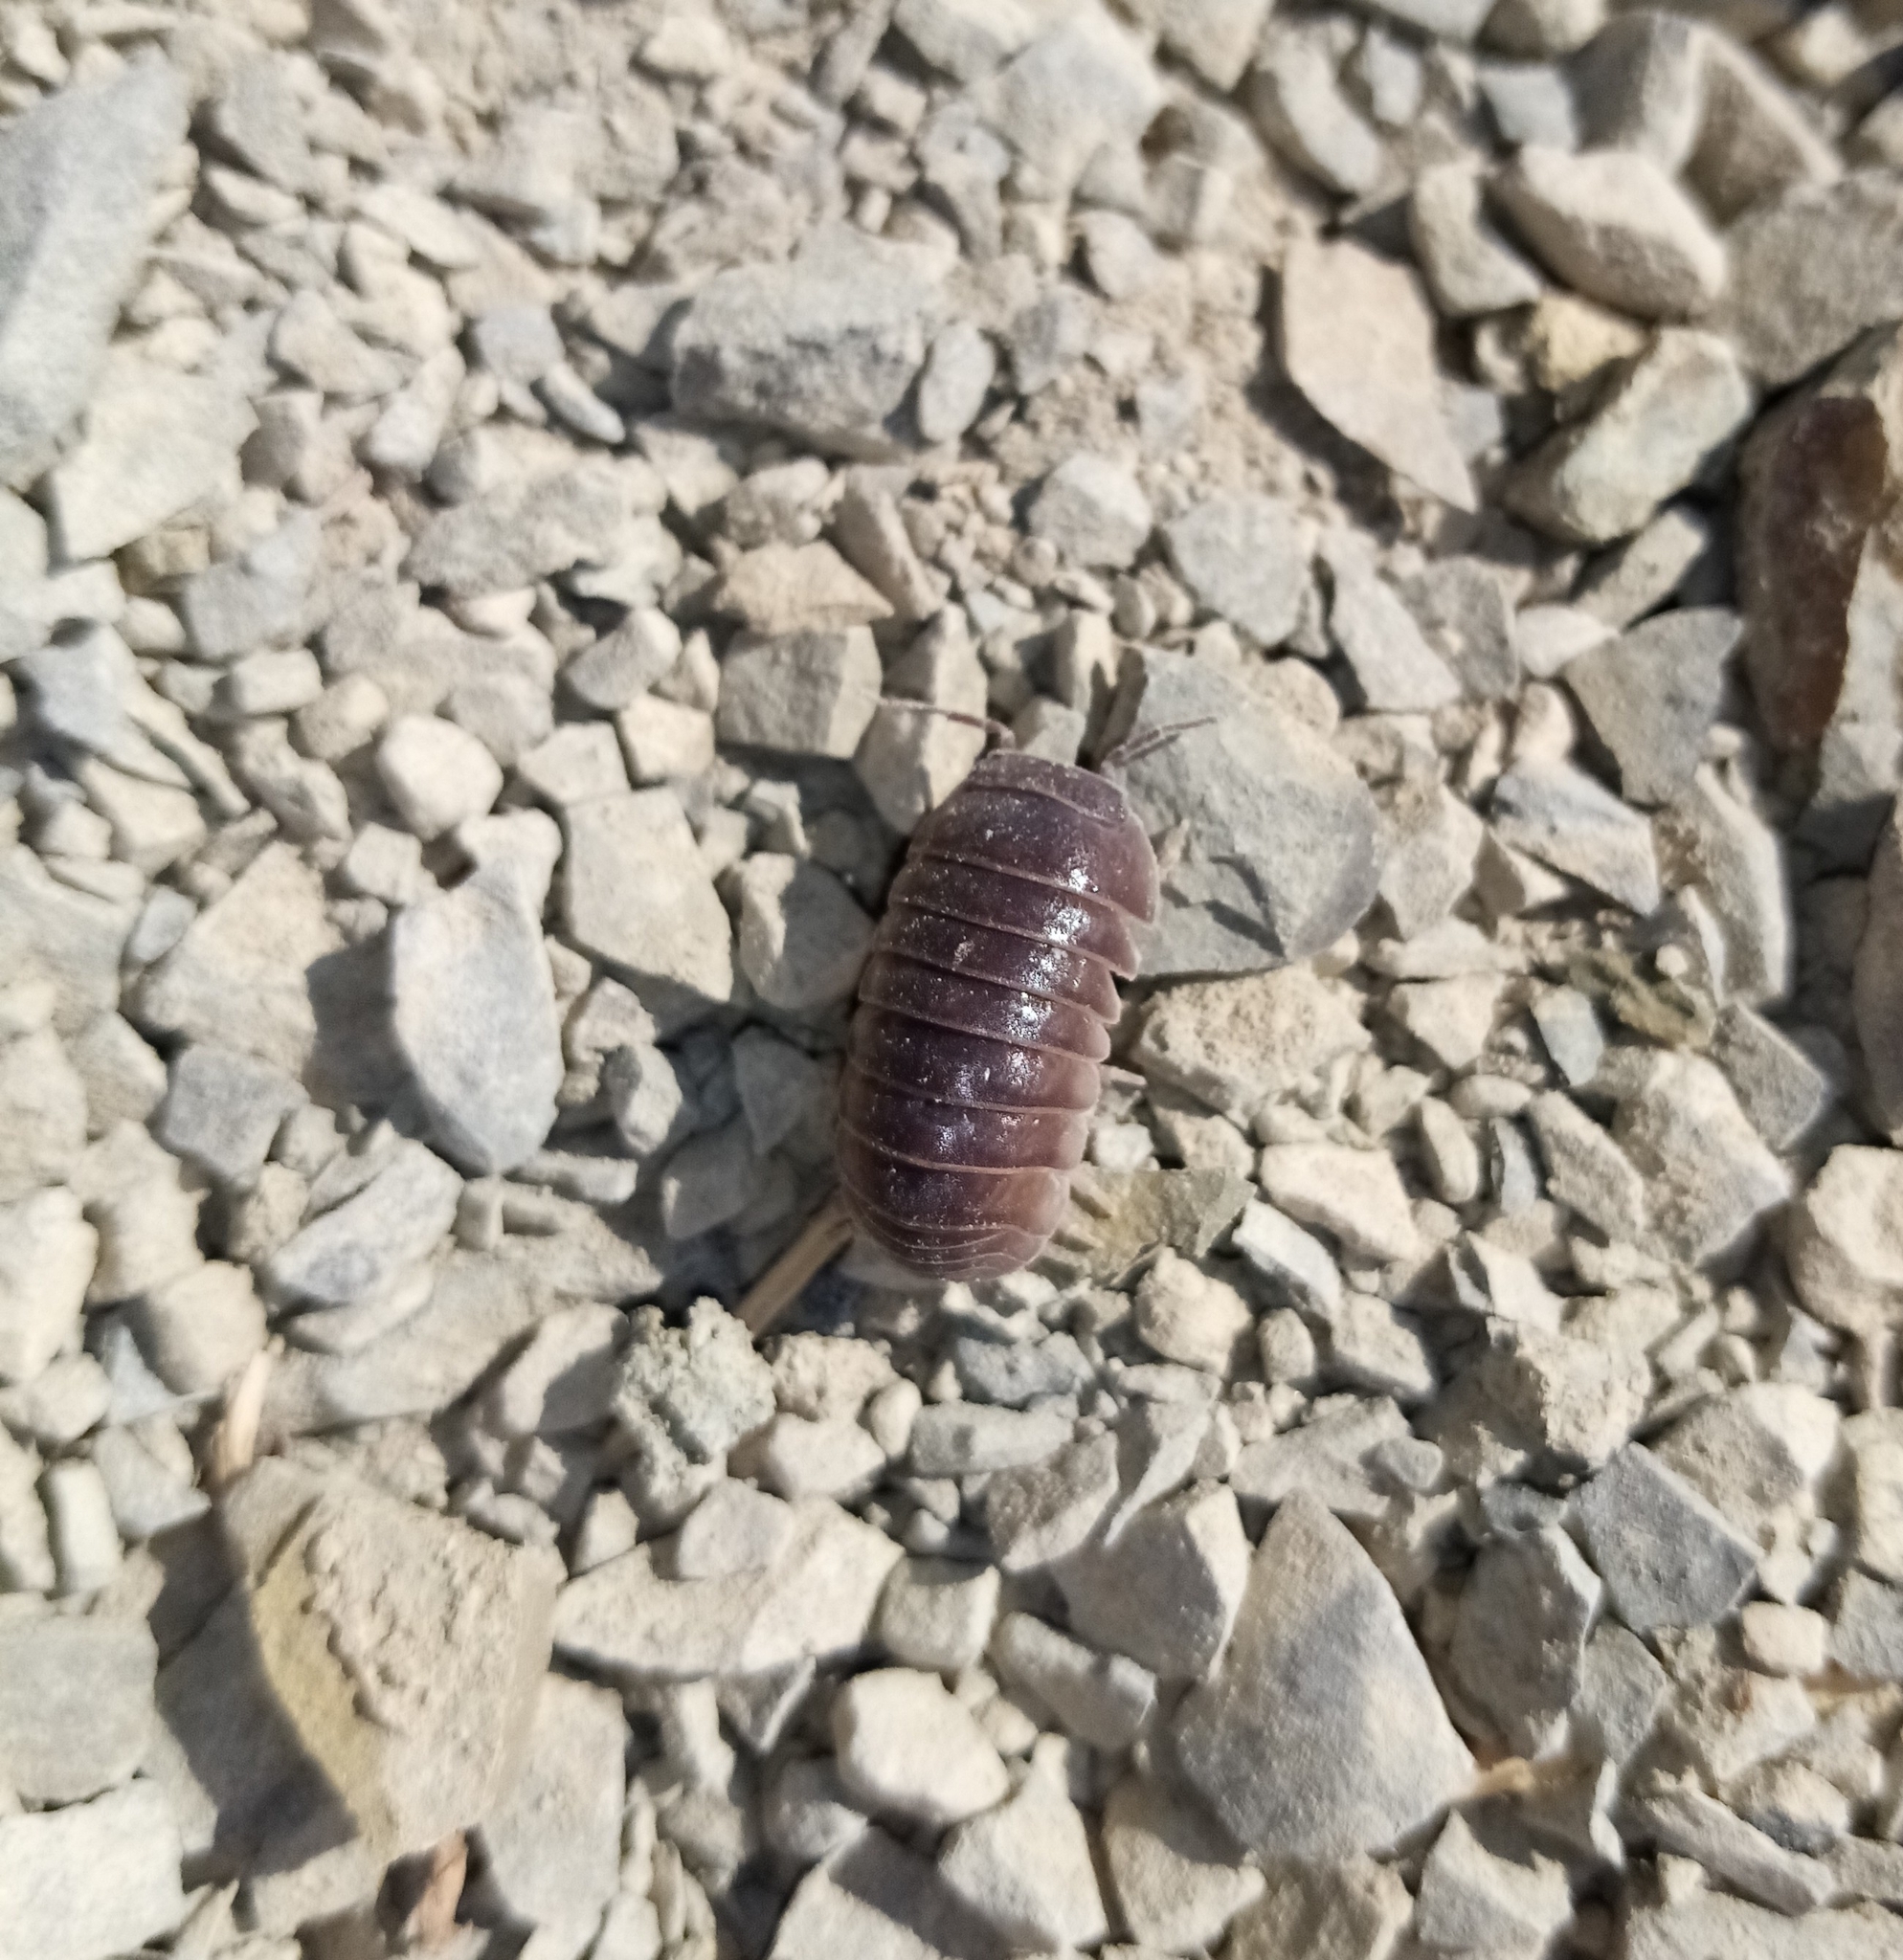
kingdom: Animalia
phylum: Arthropoda
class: Malacostraca
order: Isopoda
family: Armadillidae
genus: Armadillo
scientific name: Armadillo officinalis
